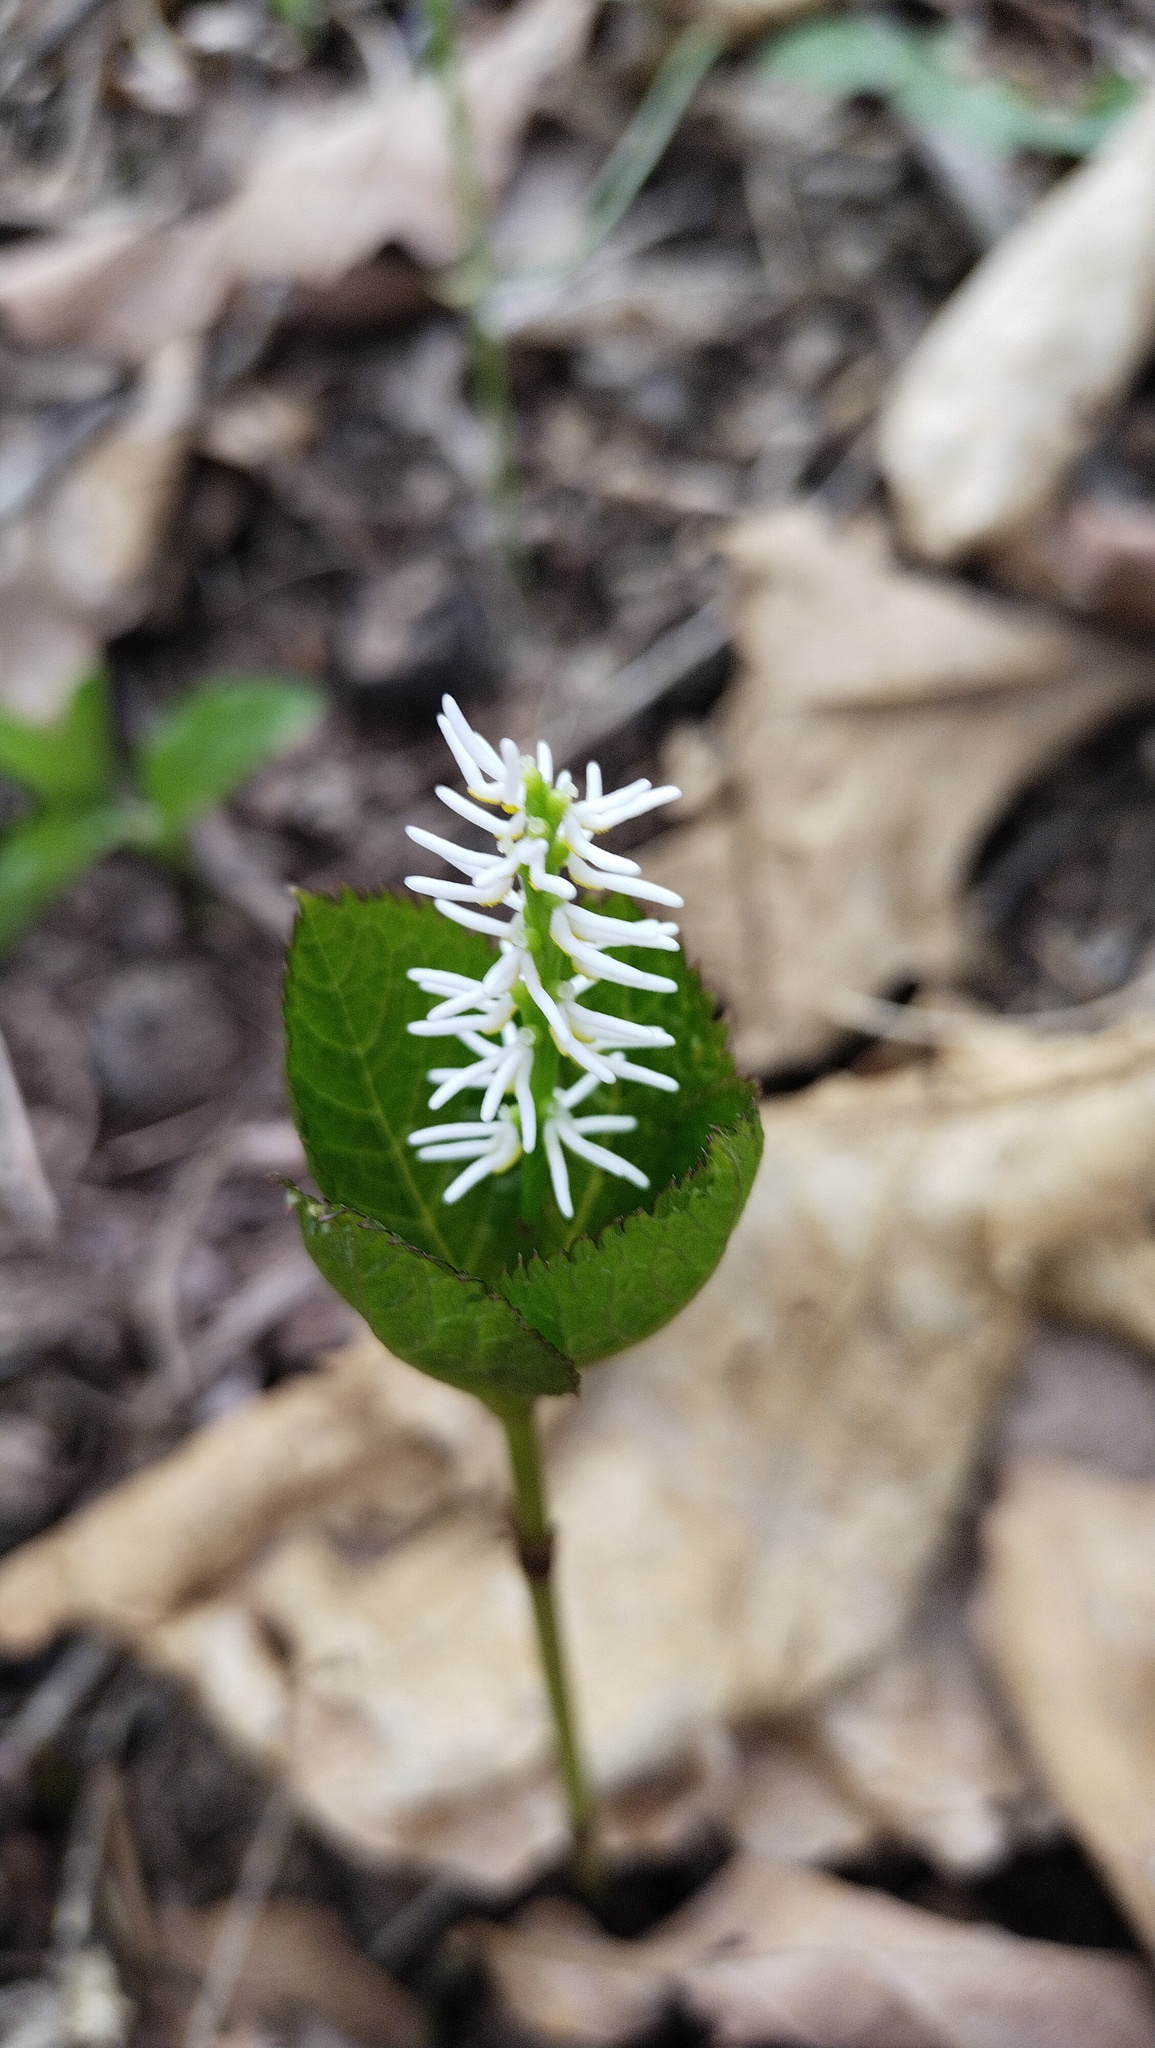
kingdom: Plantae
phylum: Tracheophyta
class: Magnoliopsida
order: Chloranthales
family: Chloranthaceae
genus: Chloranthus
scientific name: Chloranthus quadrifolius
